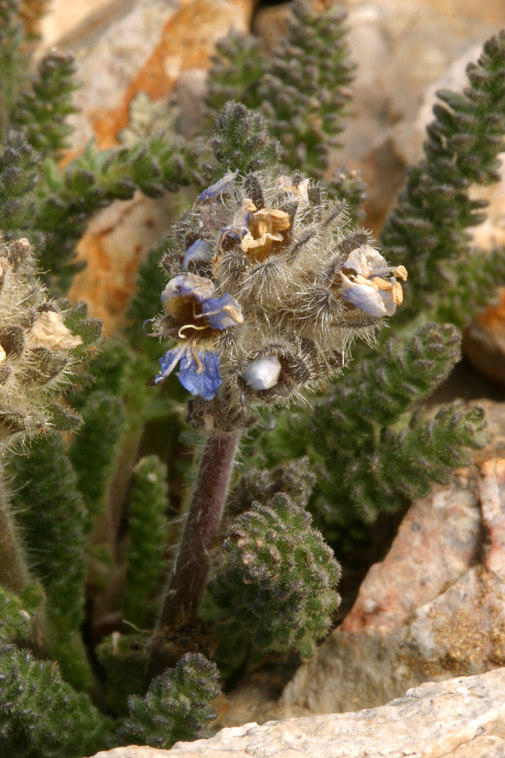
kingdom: Plantae
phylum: Tracheophyta
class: Magnoliopsida
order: Ericales
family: Polemoniaceae
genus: Polemonium
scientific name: Polemonium chartaceum
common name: Mason's sky-pilot
